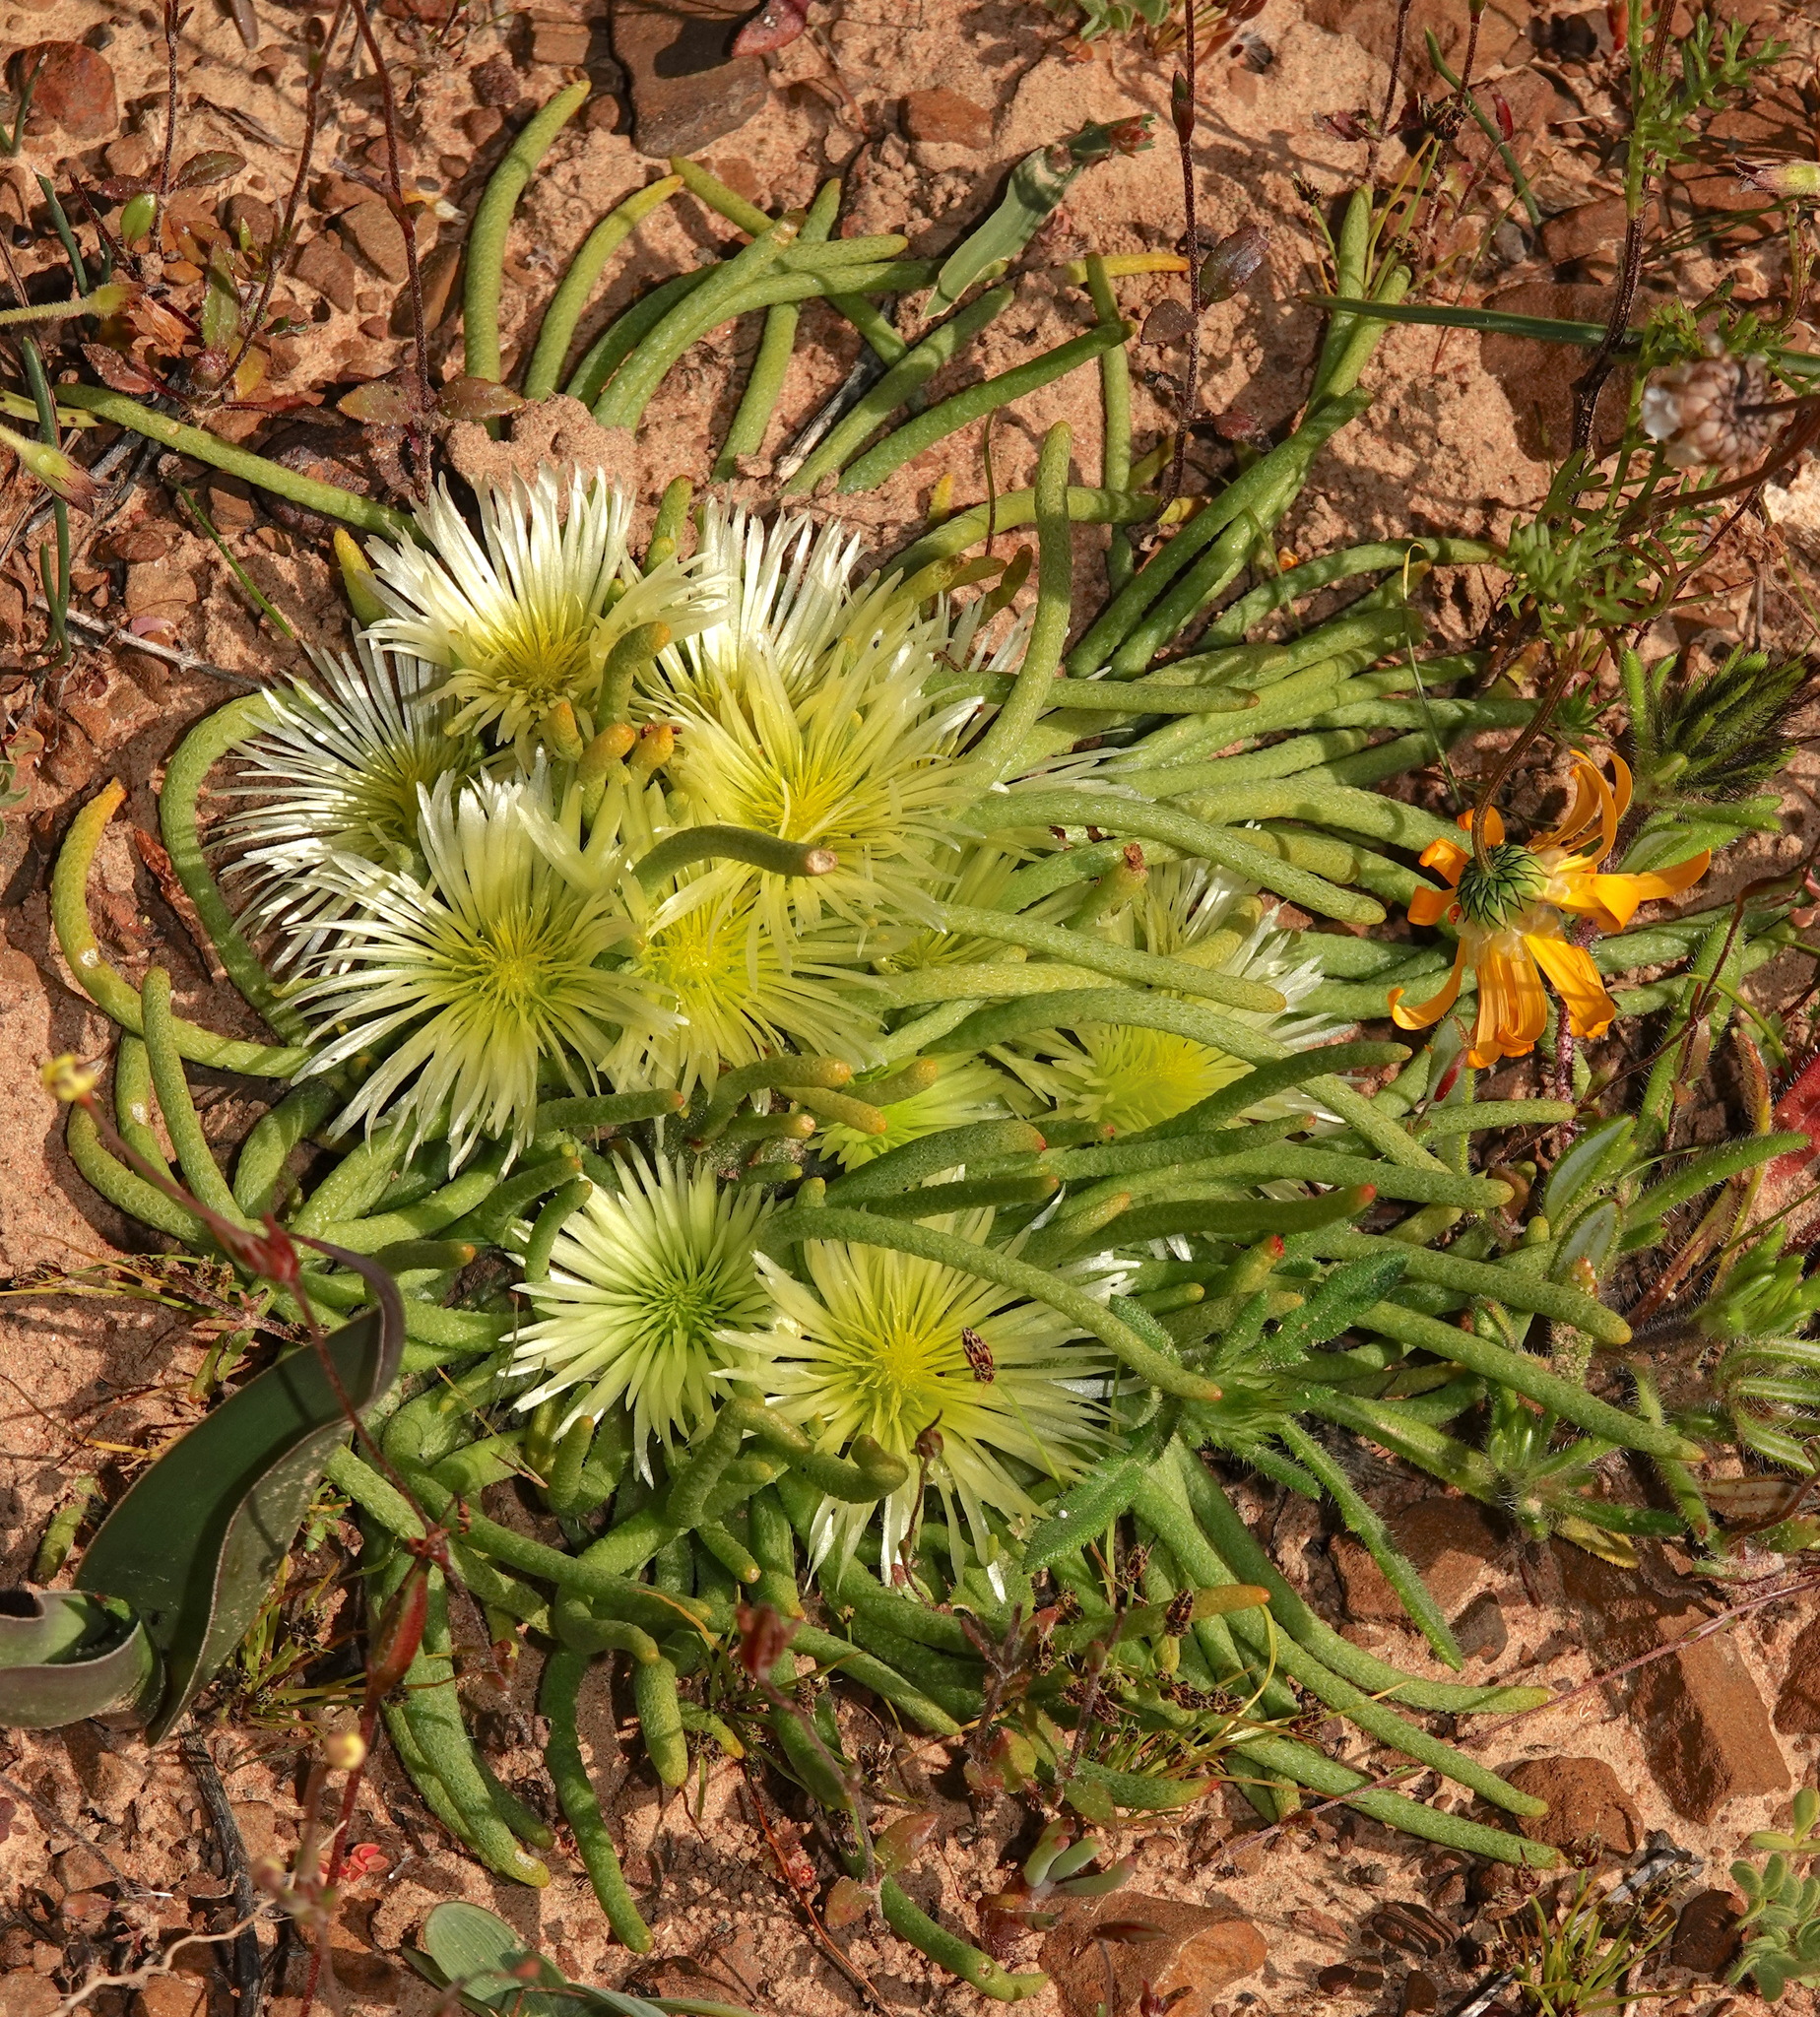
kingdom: Plantae
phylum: Tracheophyta
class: Magnoliopsida
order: Caryophyllales
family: Aizoaceae
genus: Mesembryanthemum
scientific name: Mesembryanthemum tenuiflorum
